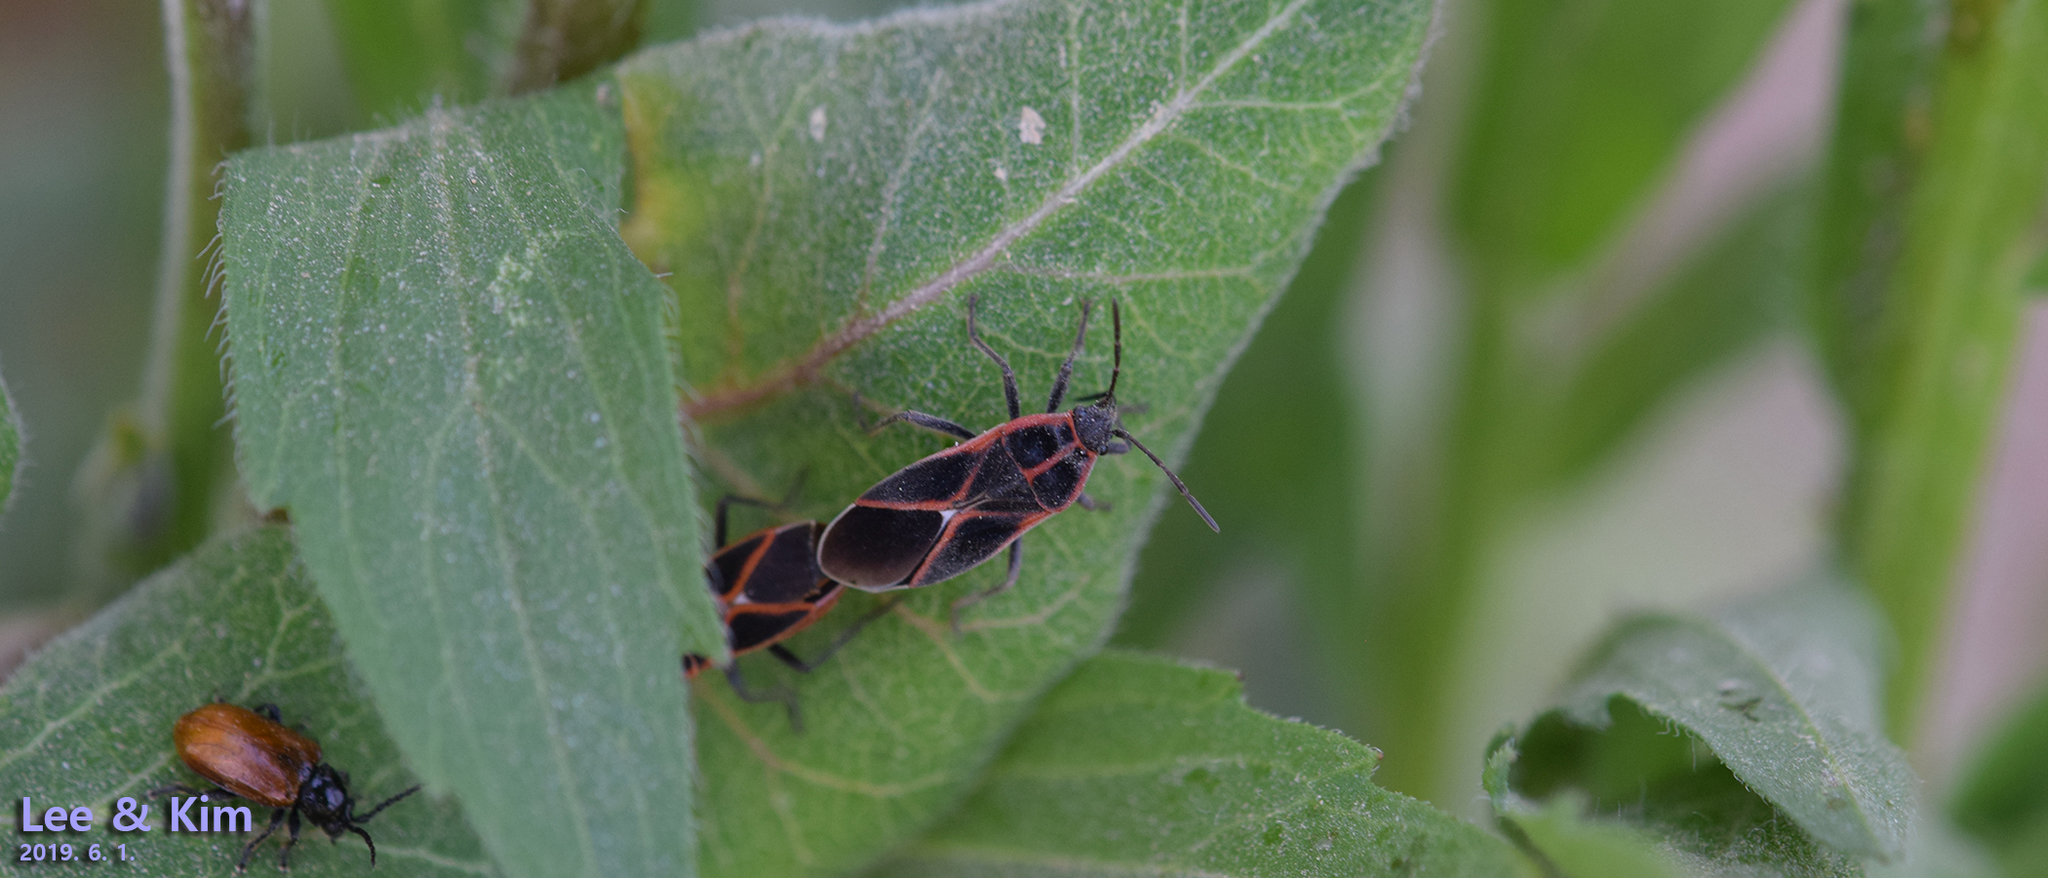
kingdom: Animalia
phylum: Arthropoda
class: Insecta
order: Hemiptera
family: Lygaeidae
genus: Tropidothorax
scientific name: Tropidothorax cruciger
